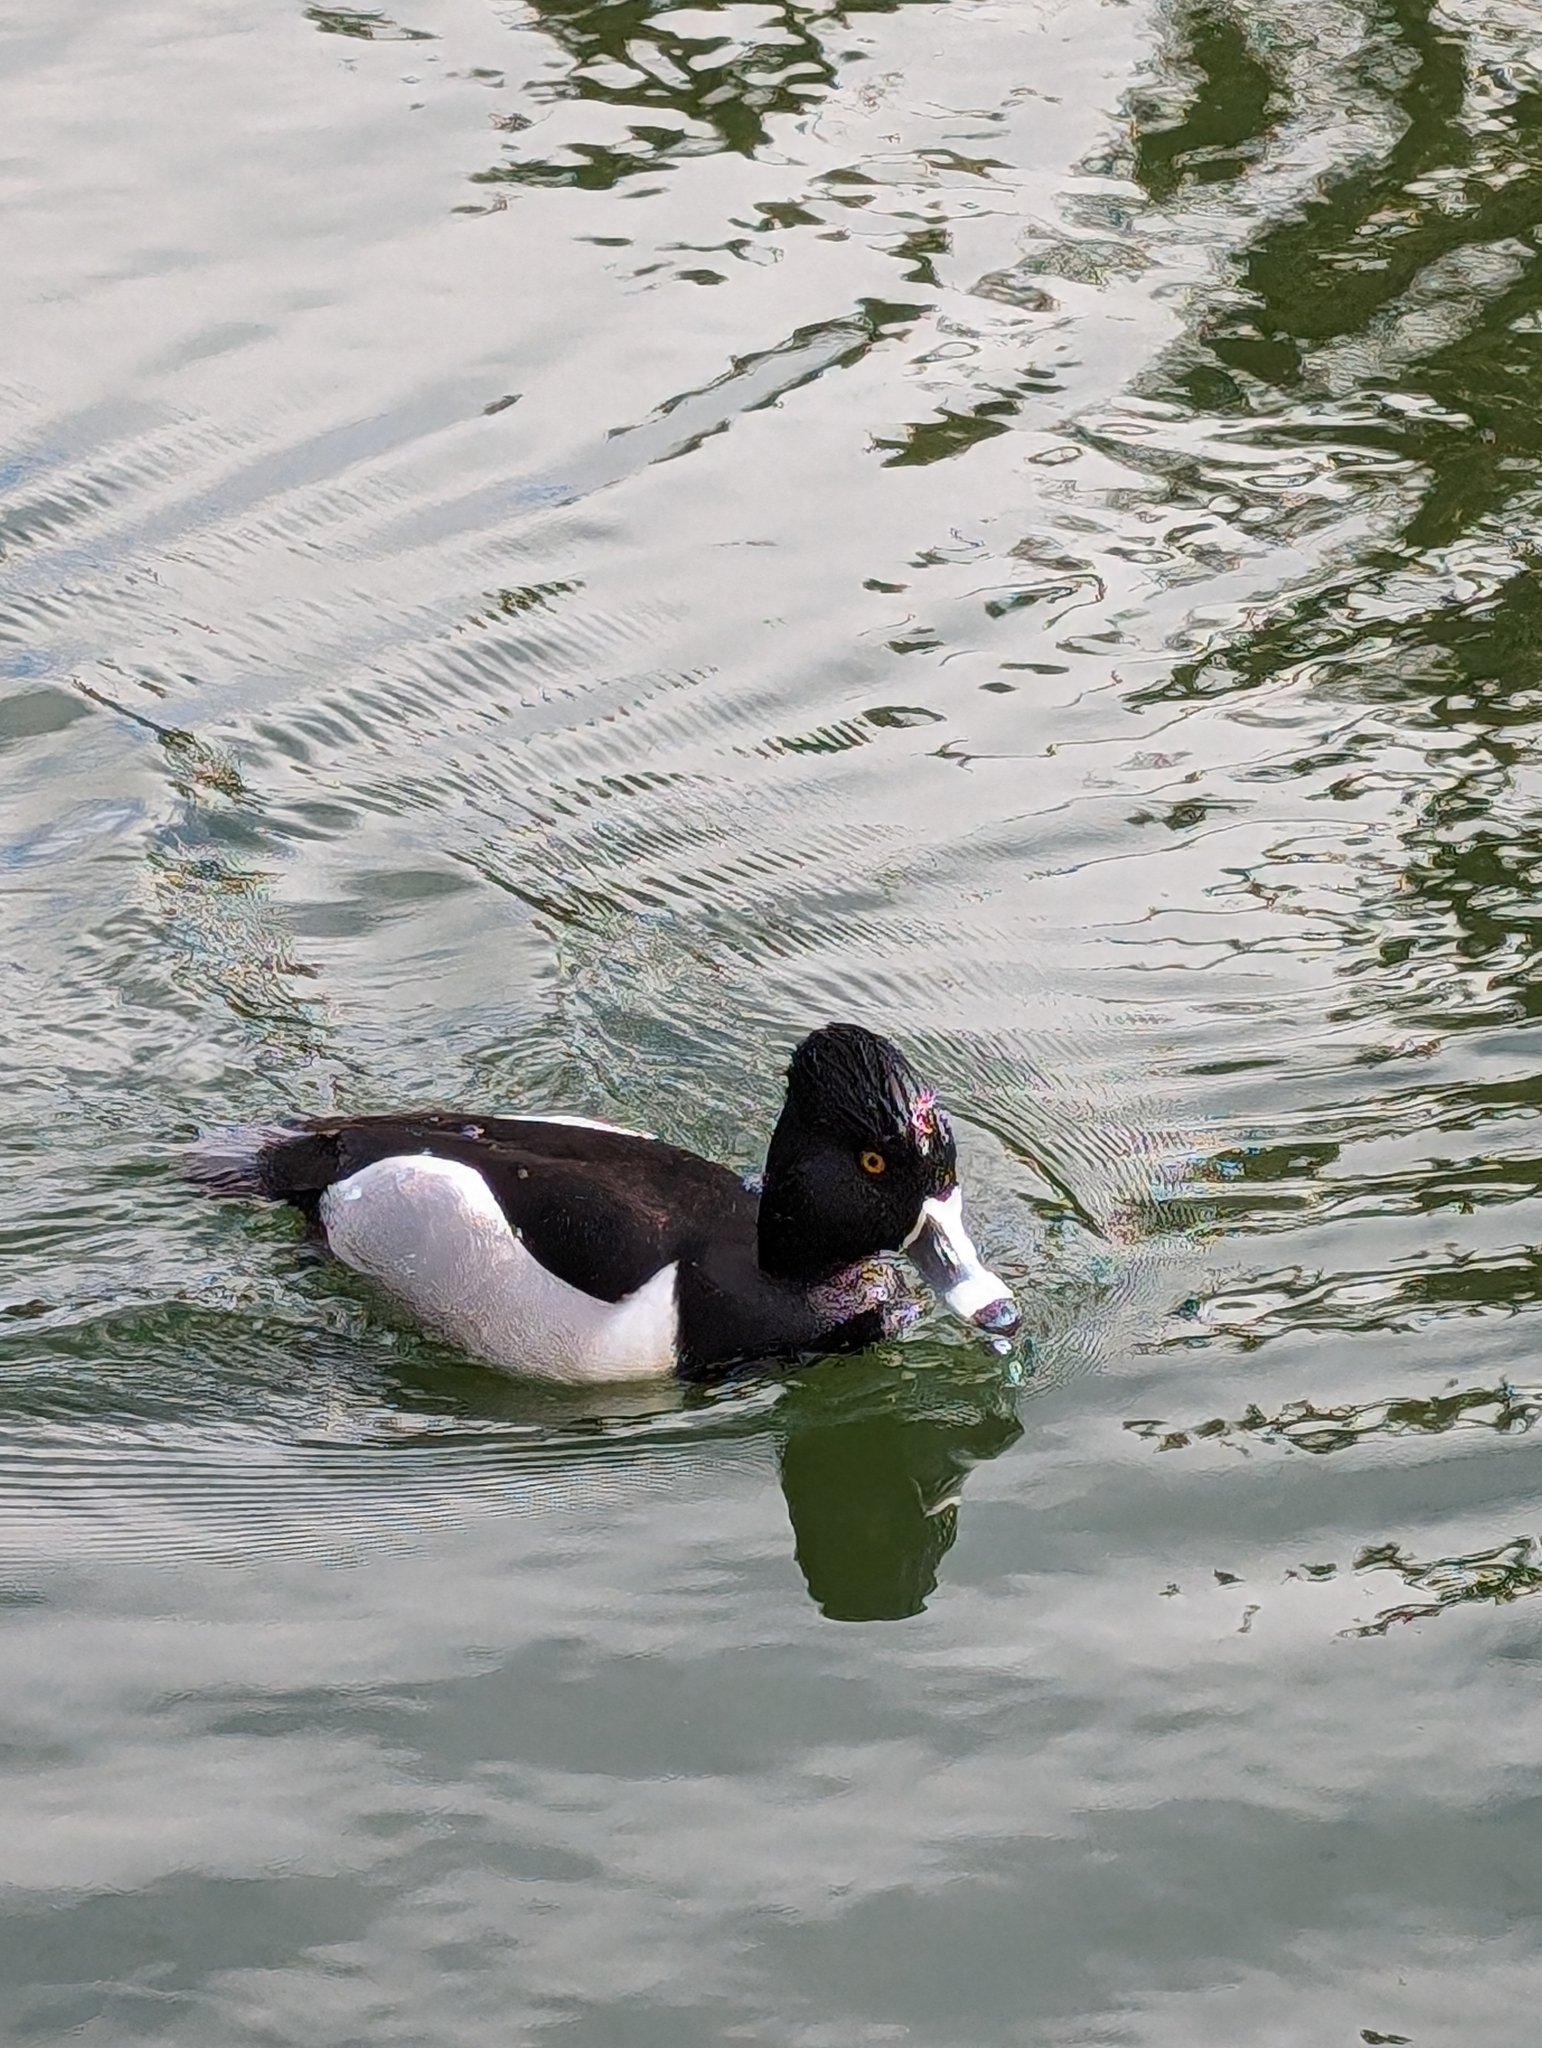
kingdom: Animalia
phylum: Chordata
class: Aves
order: Anseriformes
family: Anatidae
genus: Aythya
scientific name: Aythya collaris
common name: Ring-necked duck
